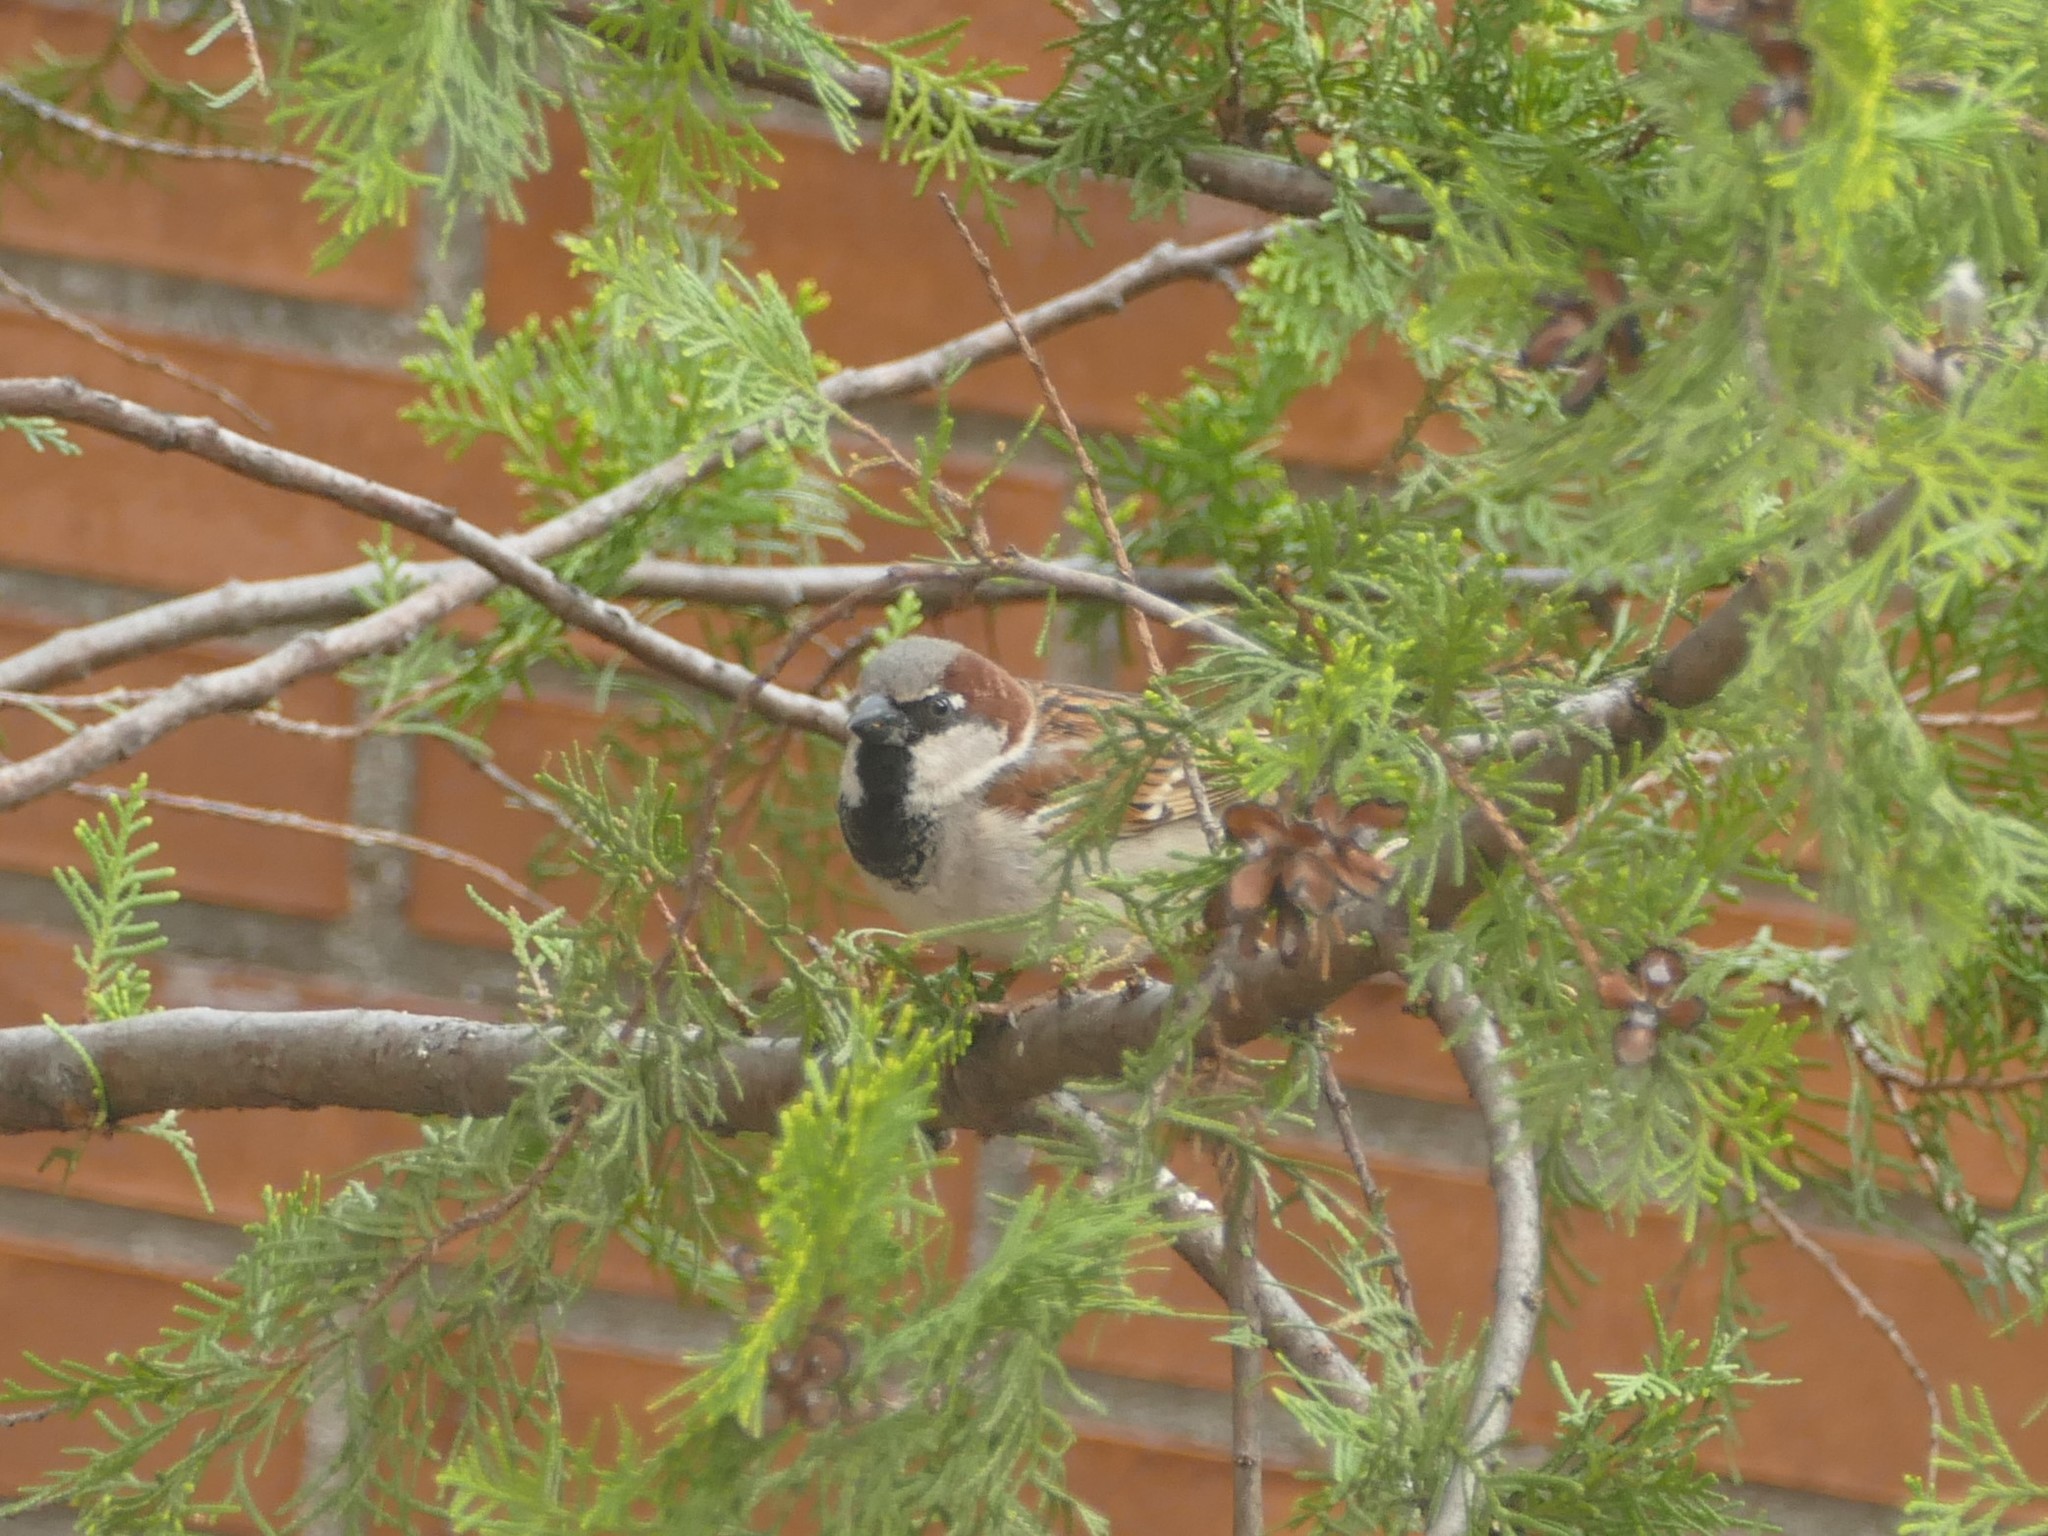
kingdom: Animalia
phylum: Chordata
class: Aves
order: Passeriformes
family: Passeridae
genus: Passer
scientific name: Passer domesticus
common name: House sparrow
